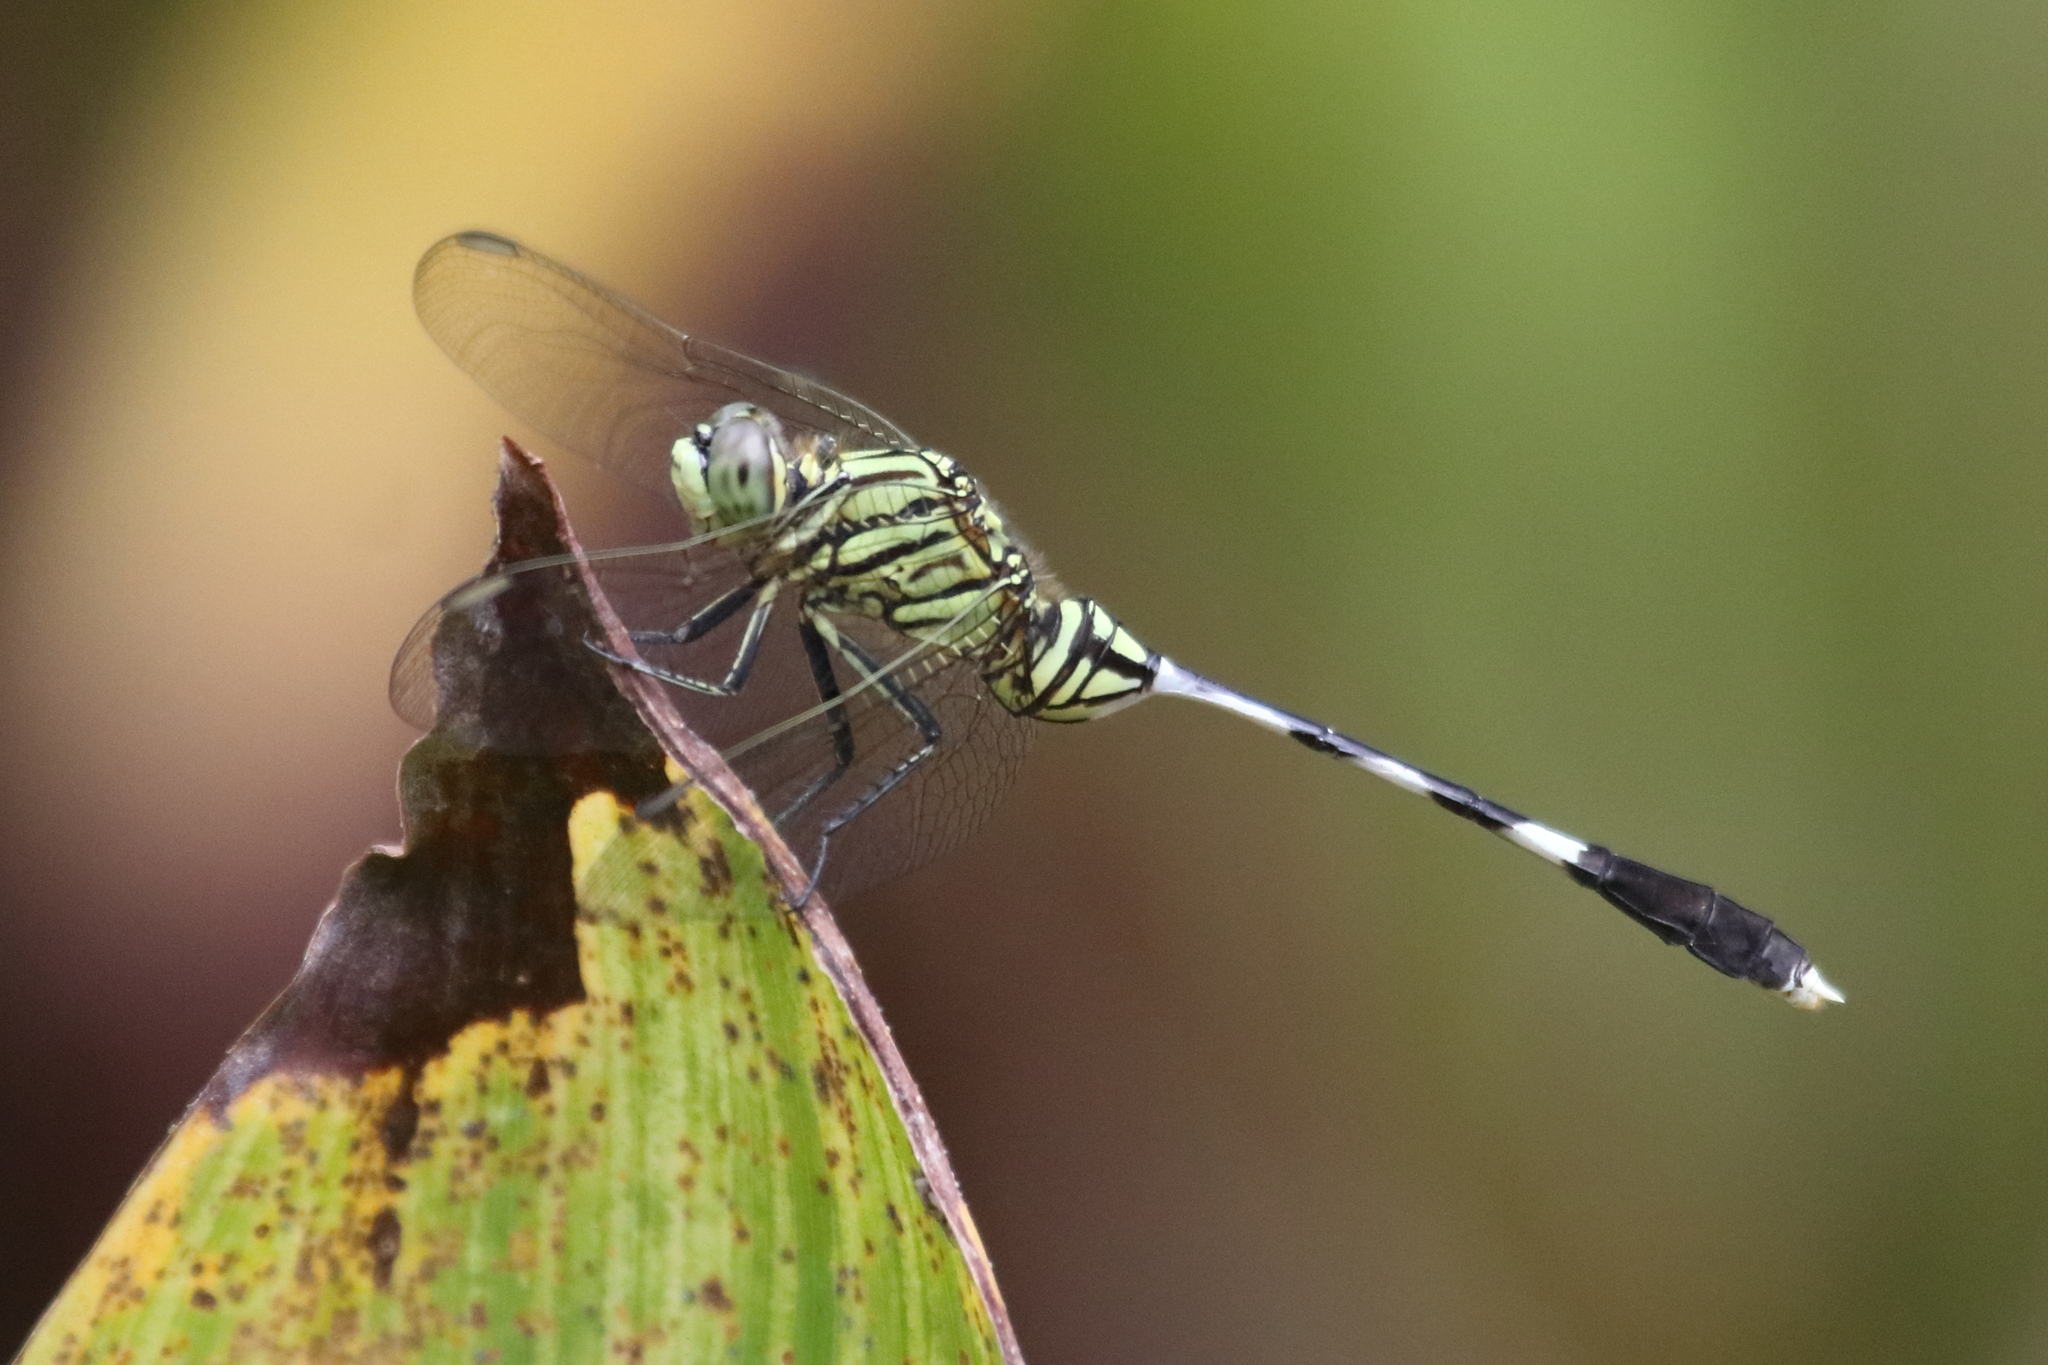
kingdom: Animalia
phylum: Arthropoda
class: Insecta
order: Odonata
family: Libellulidae
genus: Orthetrum
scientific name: Orthetrum sabina
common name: Slender skimmer
